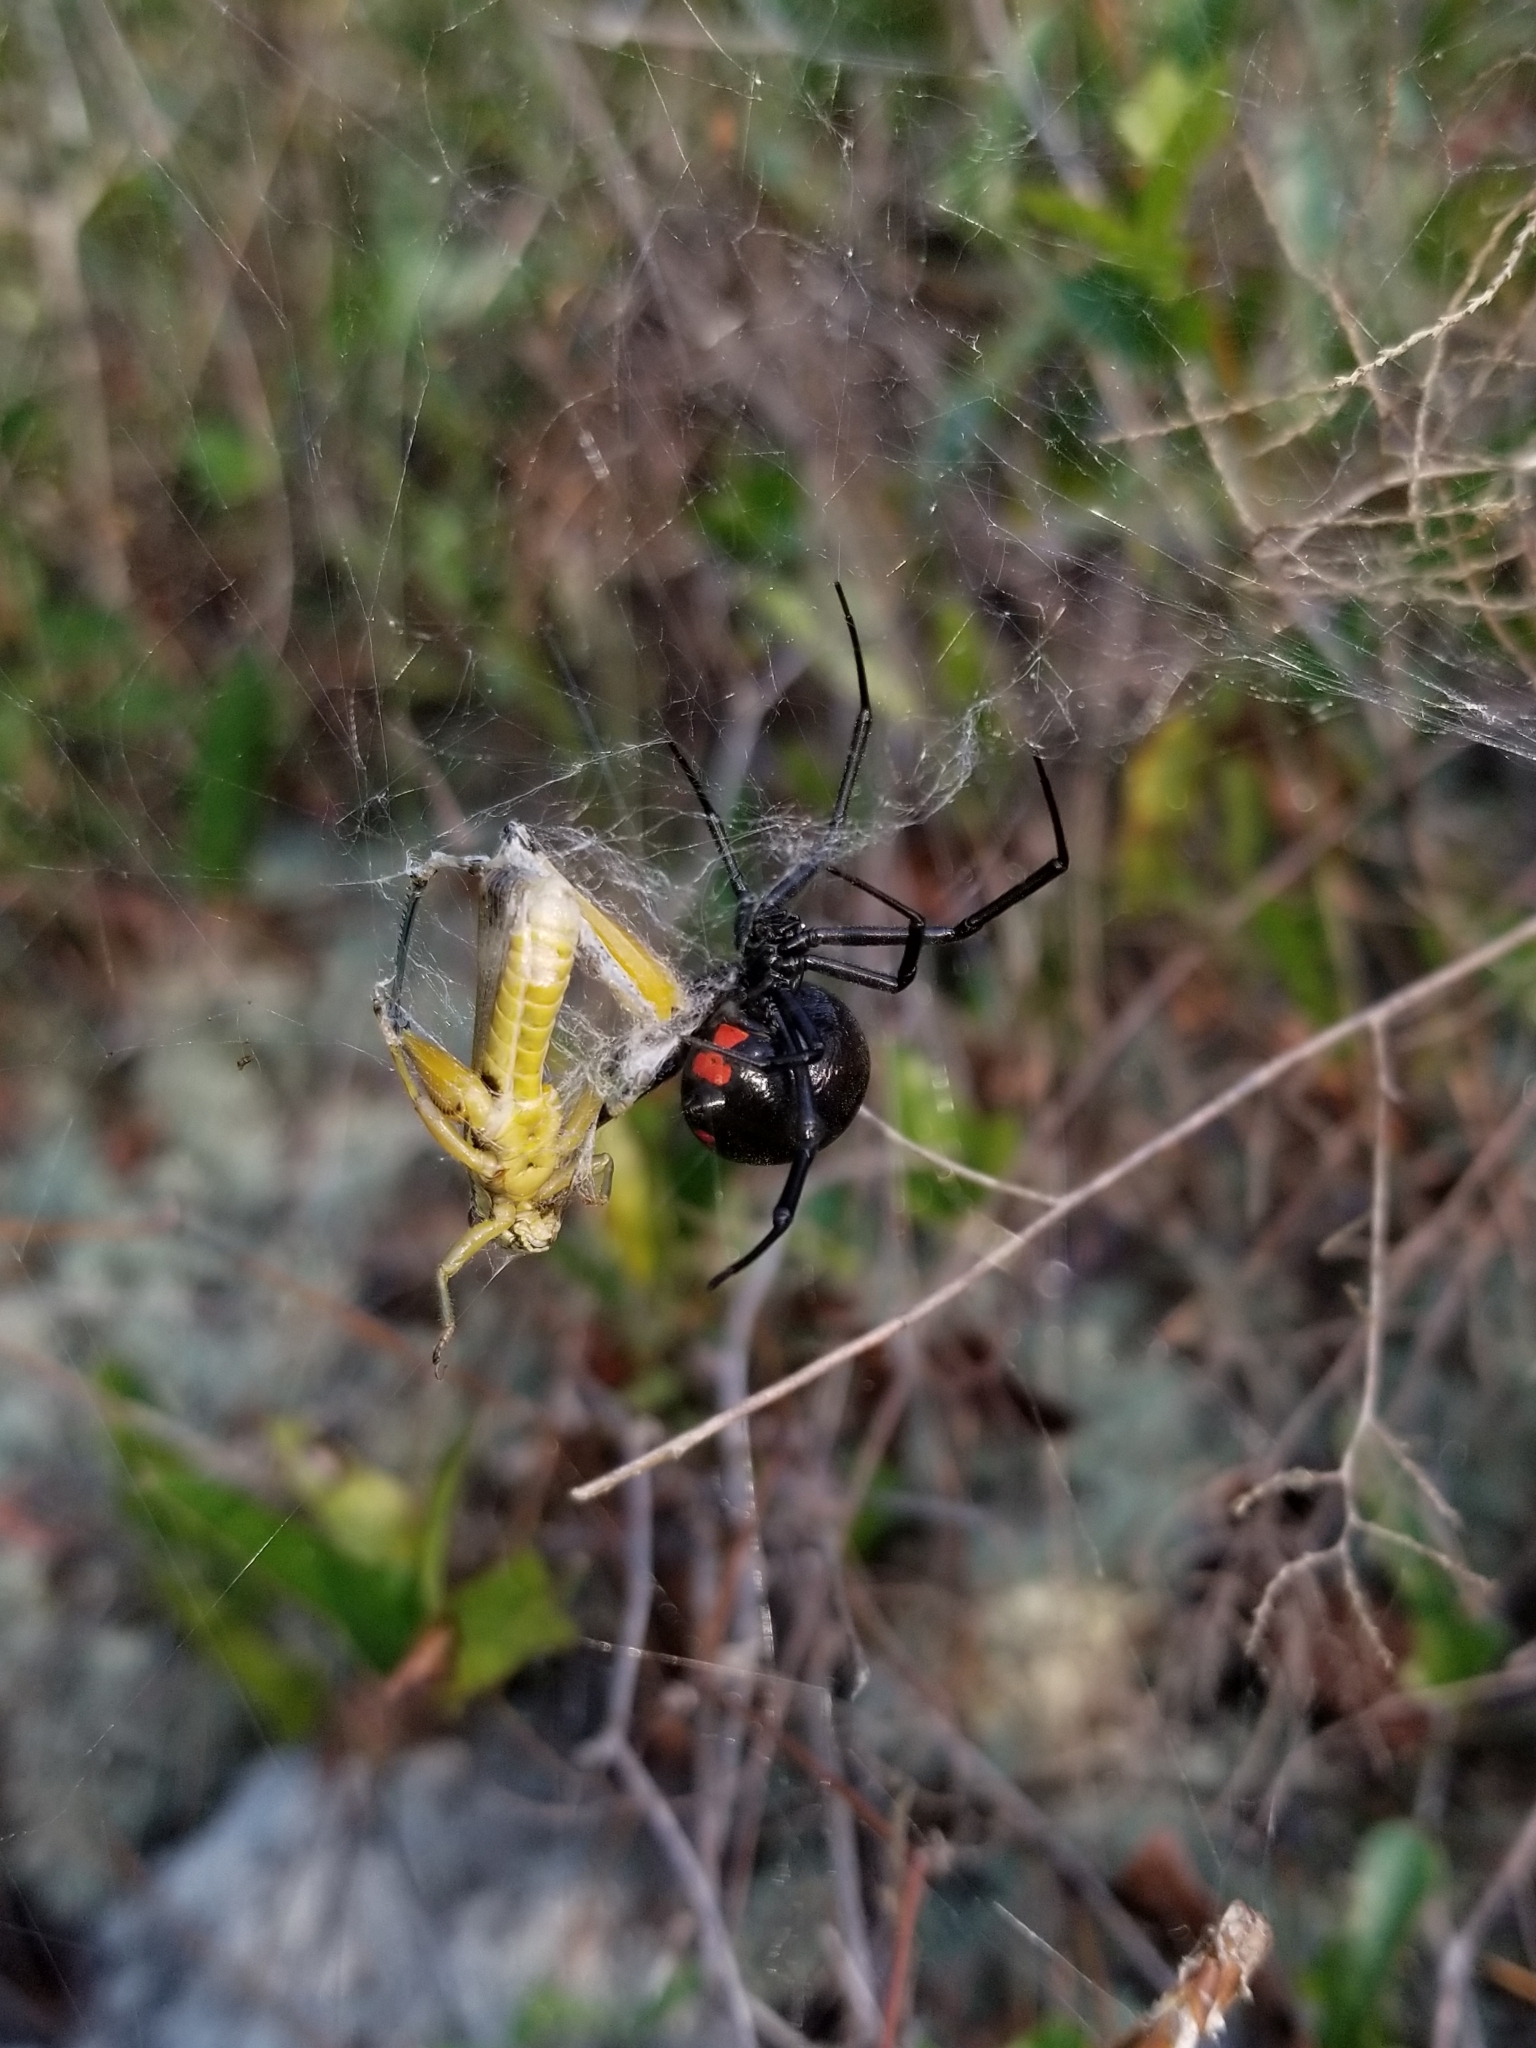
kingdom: Animalia
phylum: Arthropoda
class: Arachnida
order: Araneae
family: Theridiidae
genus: Latrodectus
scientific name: Latrodectus mactans
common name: Cobweb spiders
